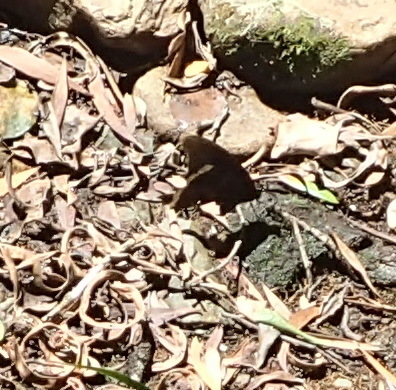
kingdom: Animalia
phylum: Arthropoda
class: Insecta
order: Lepidoptera
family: Papilionidae
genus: Papilio
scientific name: Papilio nireus
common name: Greenbanded swallowtail
